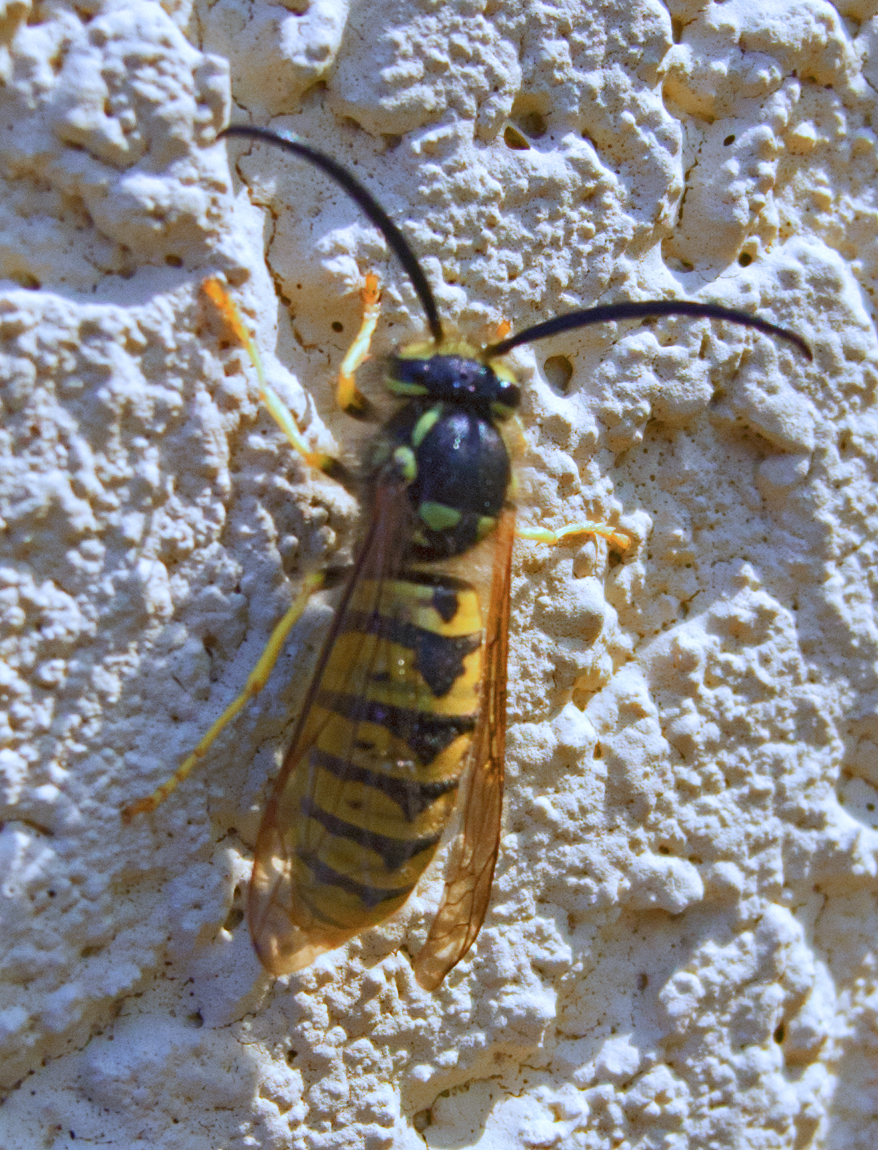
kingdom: Animalia
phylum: Arthropoda
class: Insecta
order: Hymenoptera
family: Vespidae
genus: Vespula
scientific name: Vespula germanica
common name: German wasp
